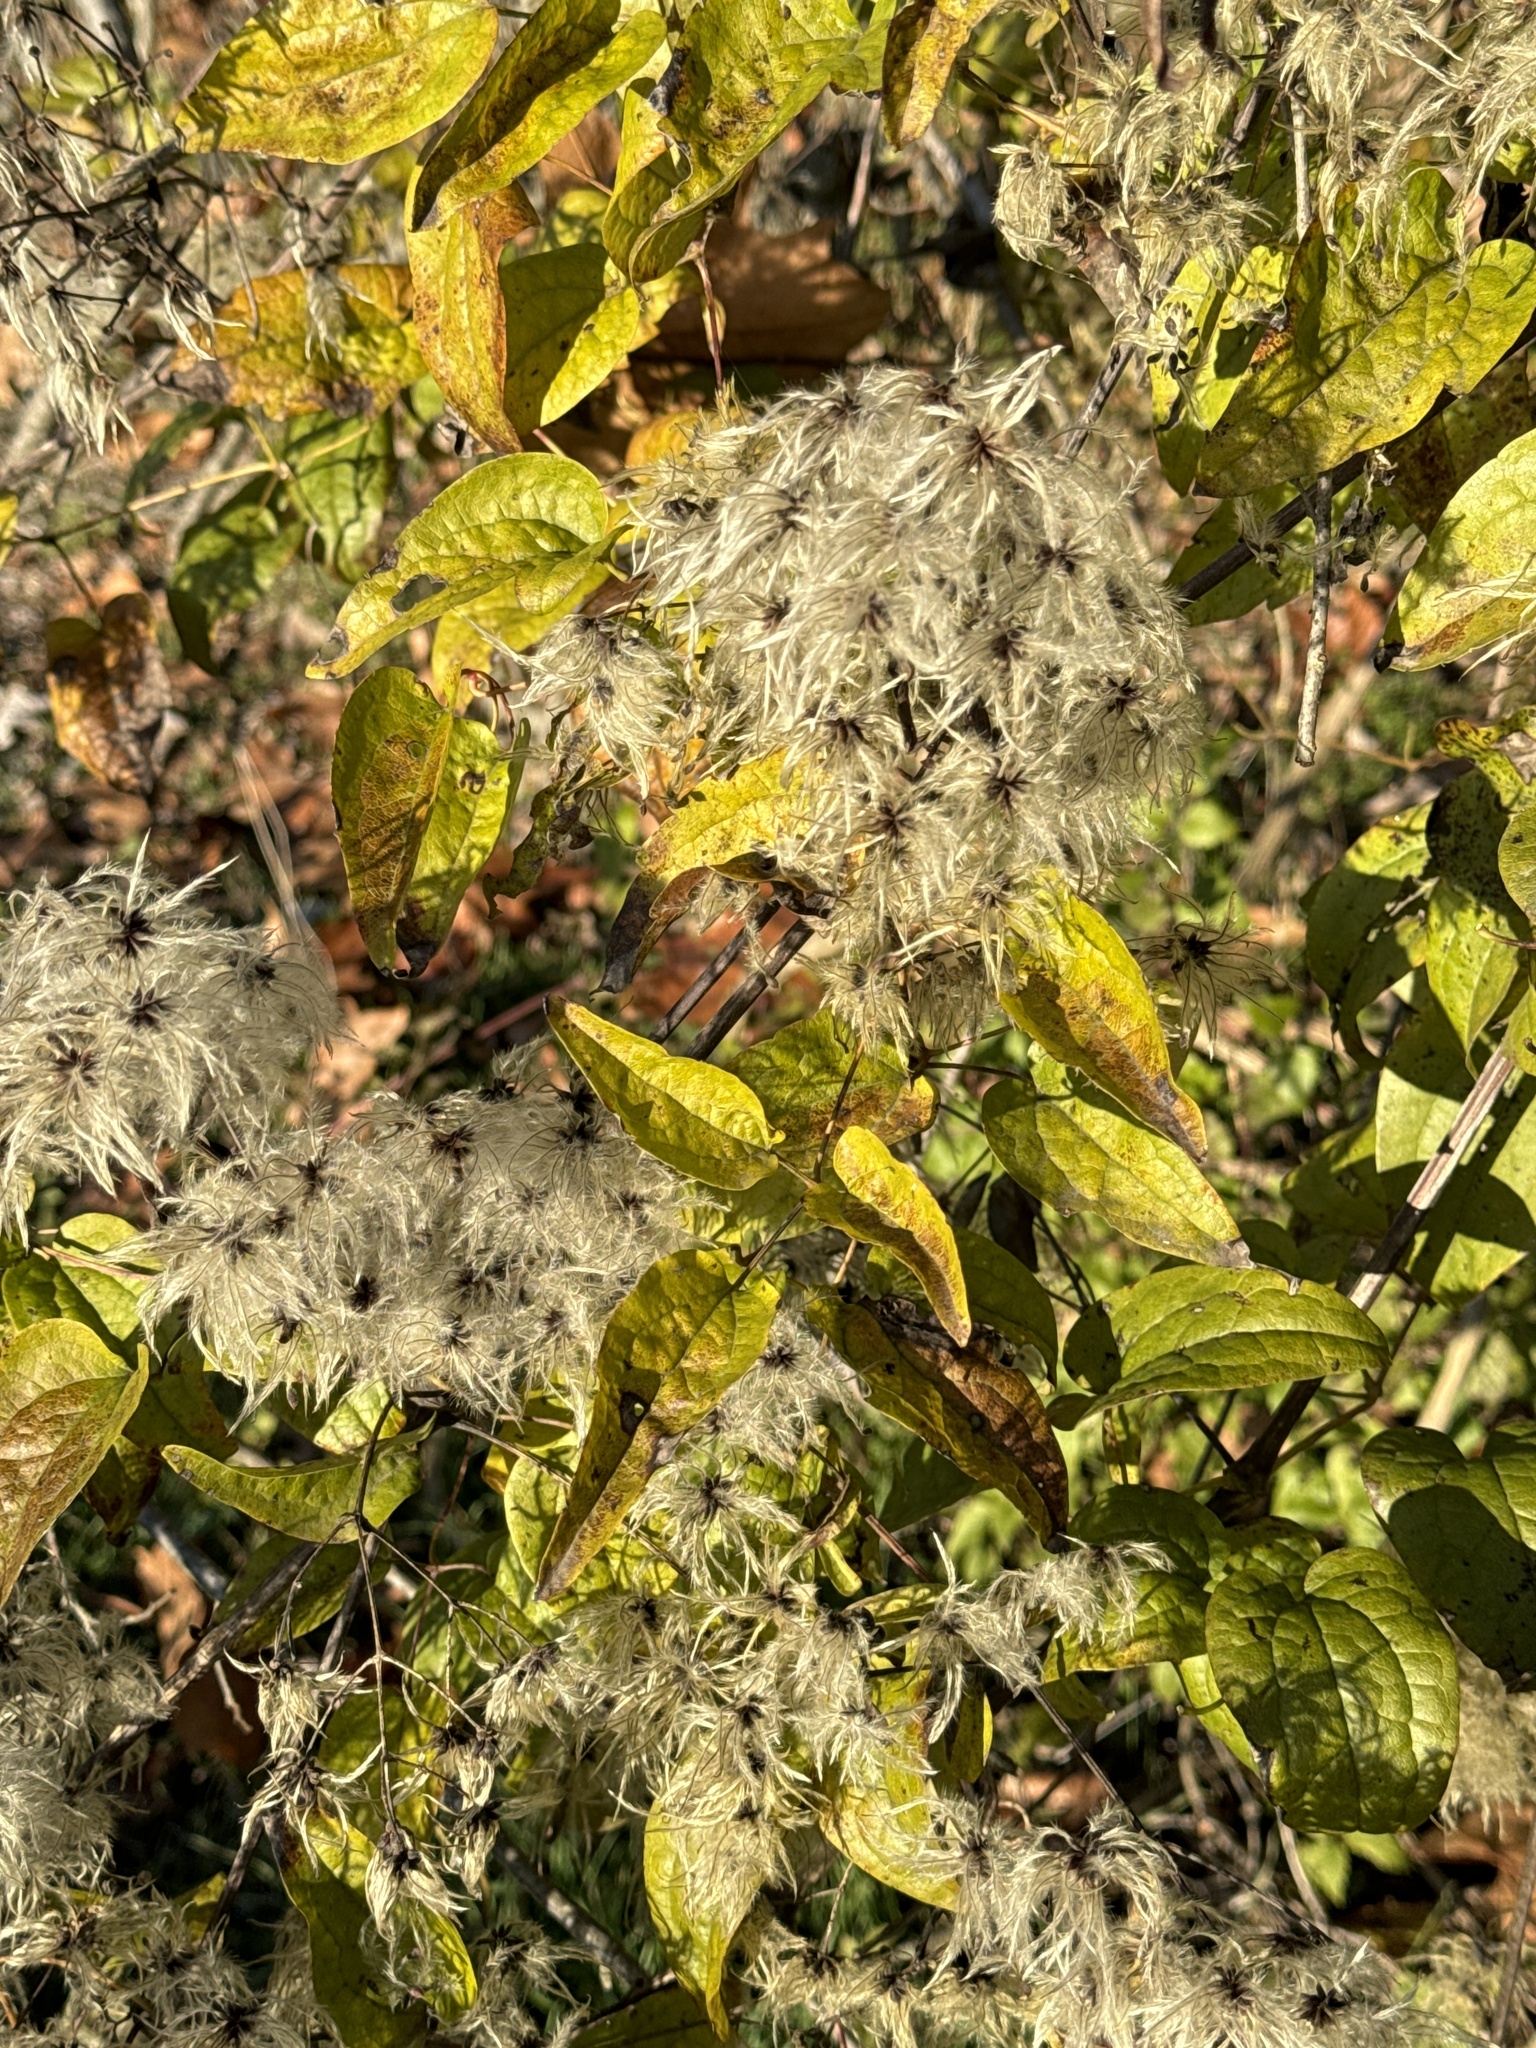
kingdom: Plantae
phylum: Tracheophyta
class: Magnoliopsida
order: Ranunculales
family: Ranunculaceae
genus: Clematis
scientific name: Clematis vitalba
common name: Evergreen clematis
